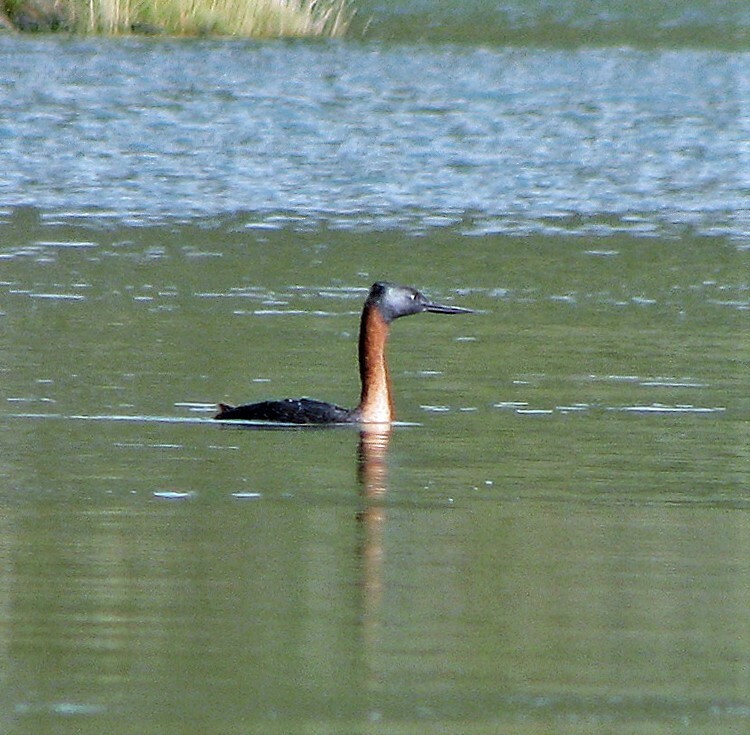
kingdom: Animalia
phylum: Chordata
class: Aves
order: Podicipediformes
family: Podicipedidae
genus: Podiceps
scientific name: Podiceps major
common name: Great grebe
